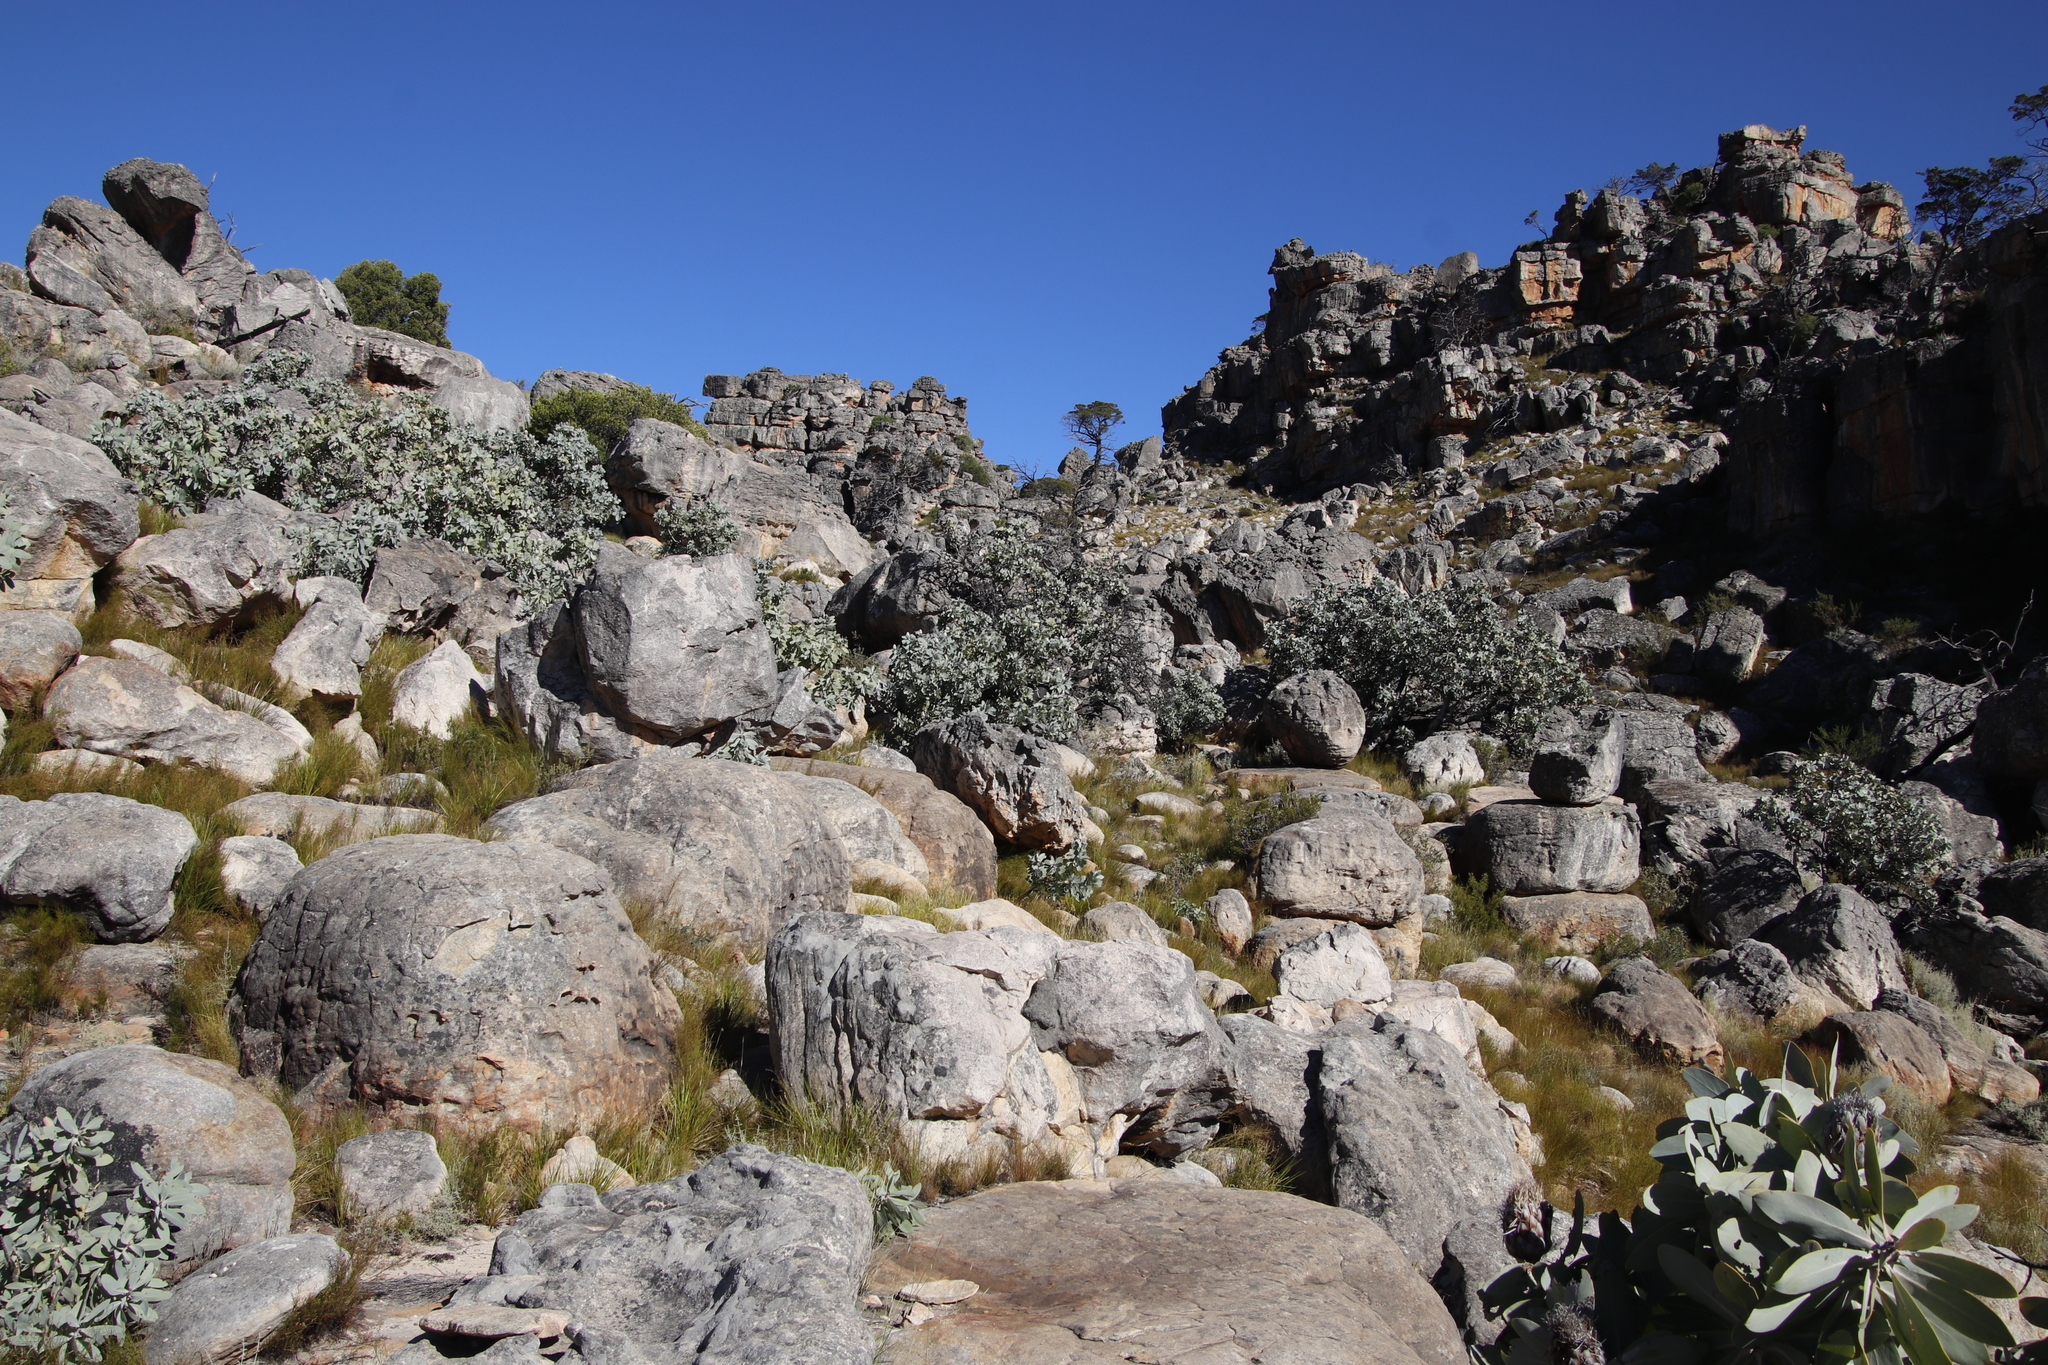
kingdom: Plantae
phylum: Tracheophyta
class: Magnoliopsida
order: Proteales
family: Proteaceae
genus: Protea
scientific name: Protea nitida
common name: Tree protea
